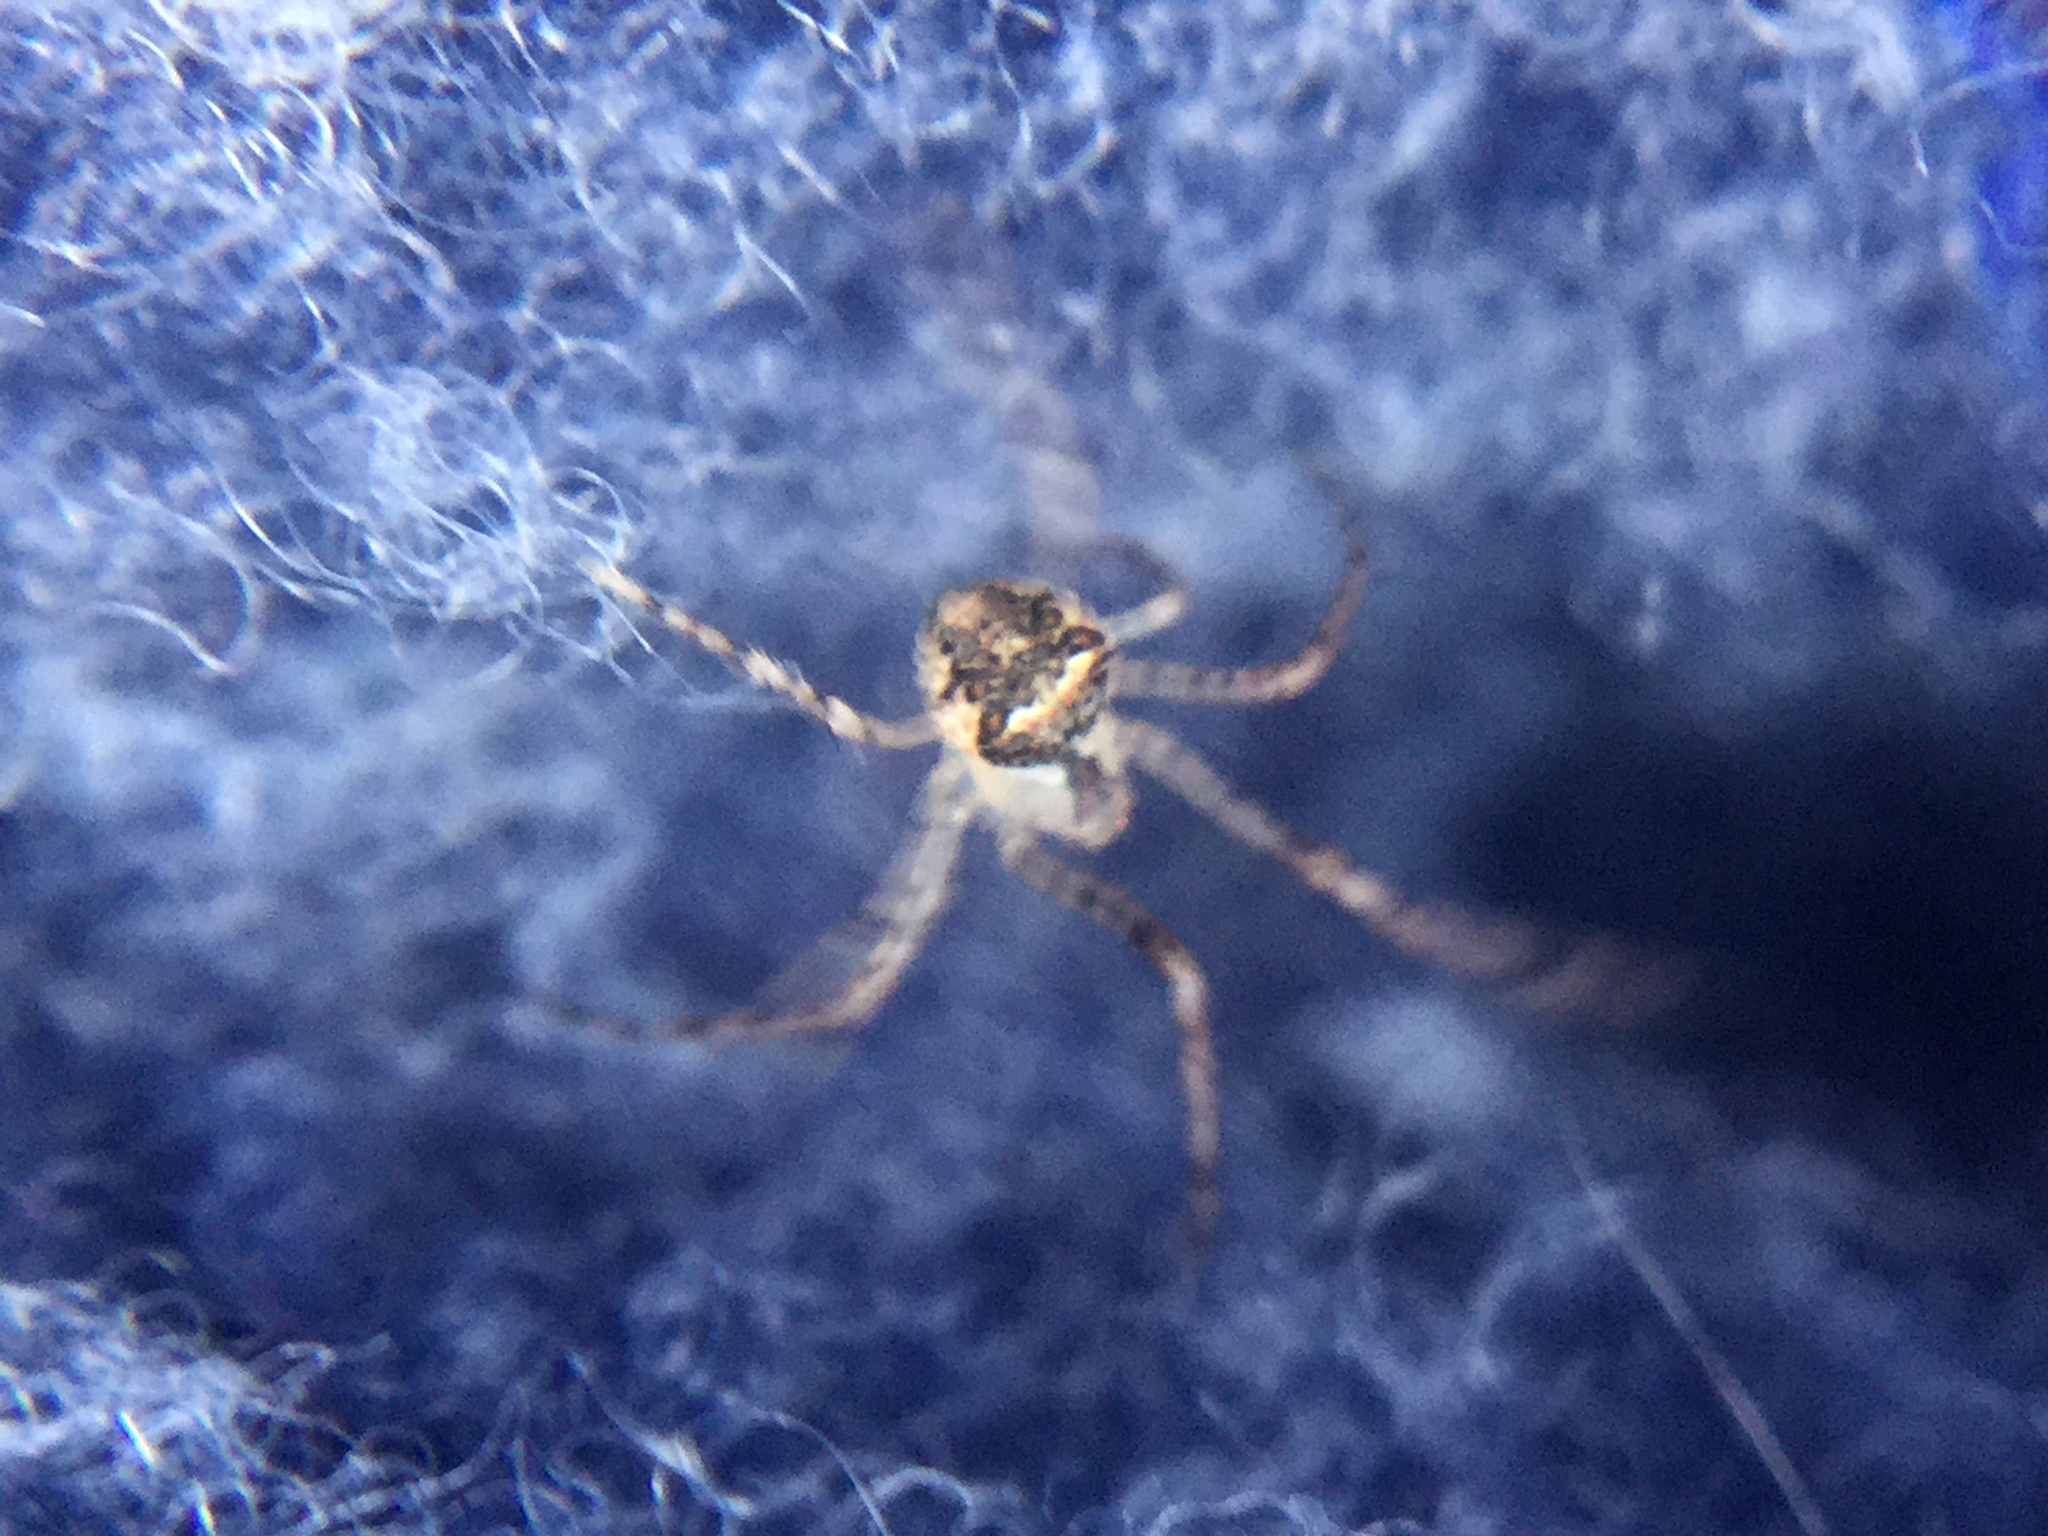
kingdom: Animalia
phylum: Arthropoda
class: Arachnida
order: Araneae
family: Mimetidae
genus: Mimetus
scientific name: Mimetus puritanus
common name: Common pirate spider
